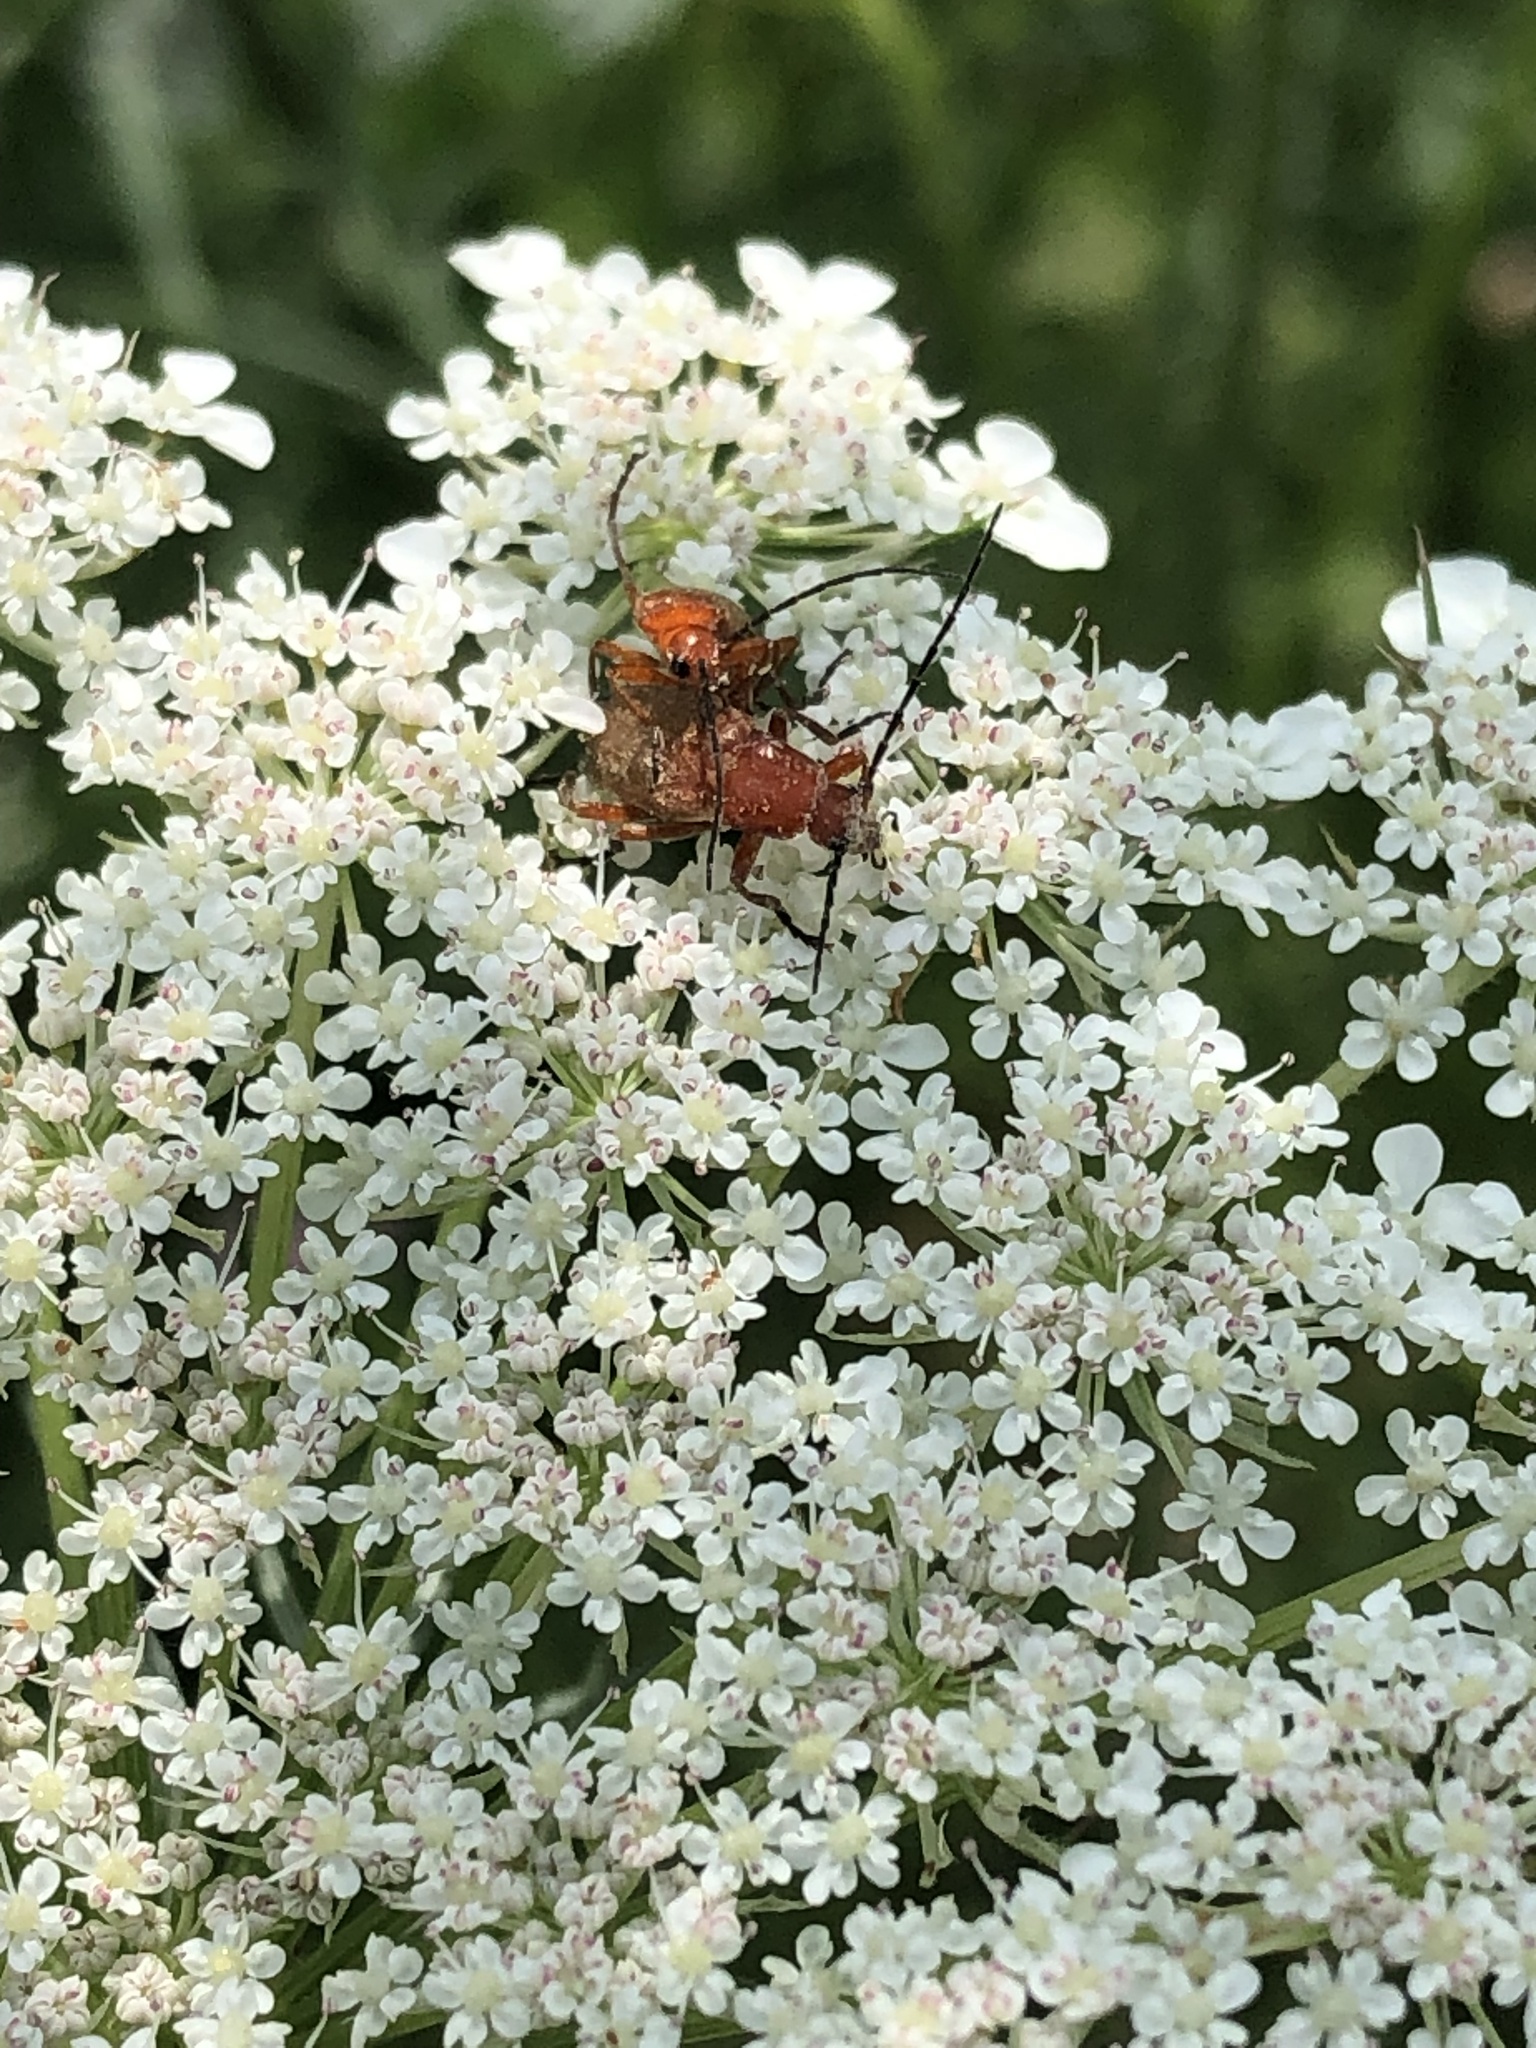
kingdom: Animalia
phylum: Arthropoda
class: Insecta
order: Coleoptera
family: Cantharidae
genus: Rhagonycha
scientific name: Rhagonycha fulva
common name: Common red soldier beetle
